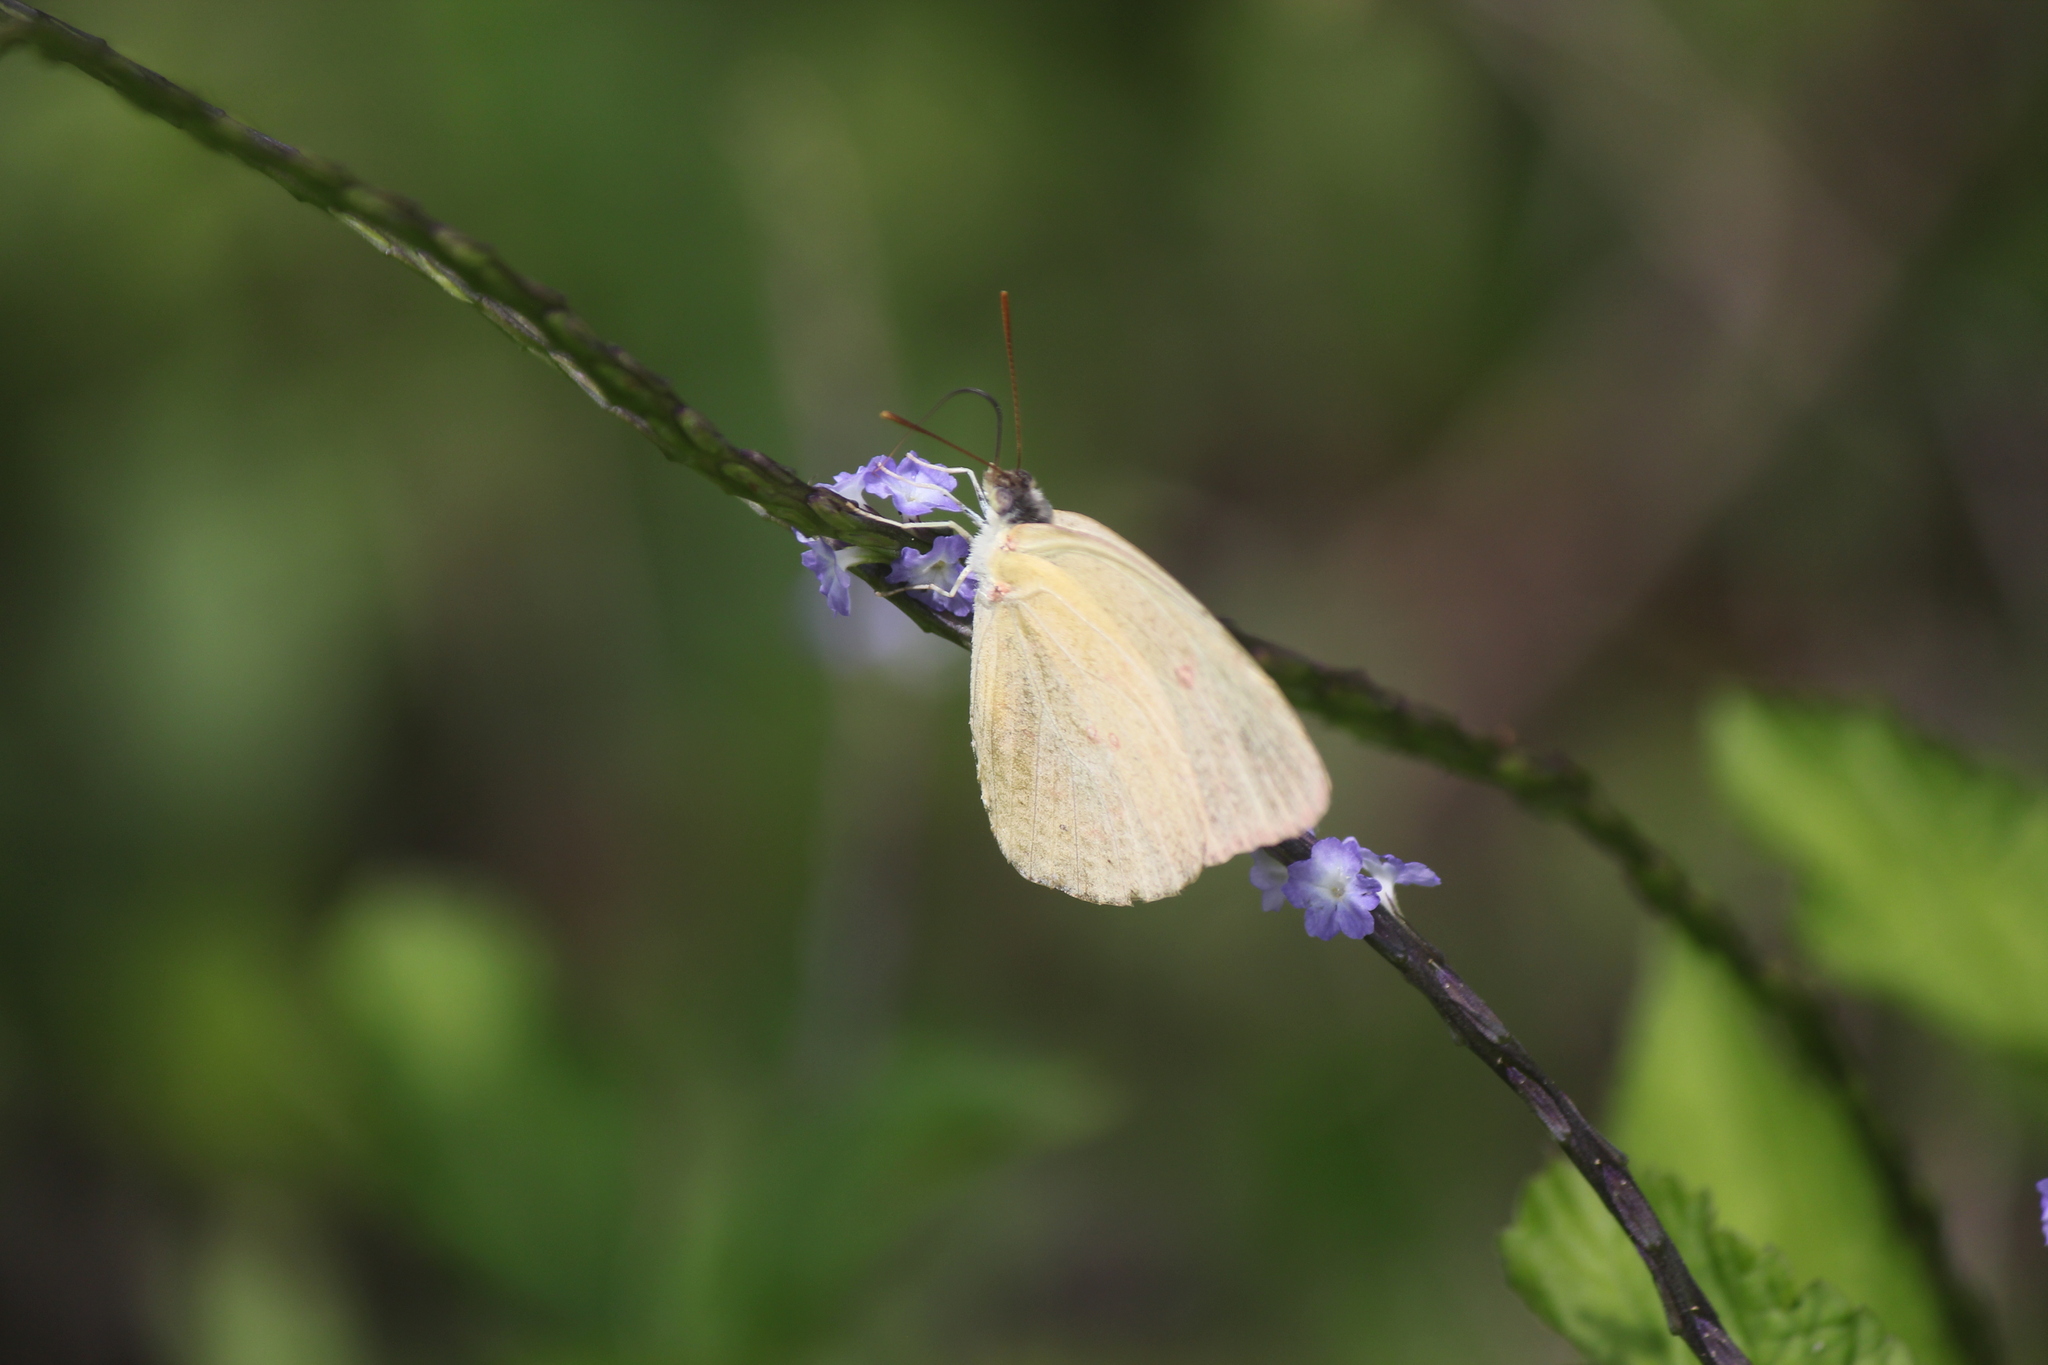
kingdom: Animalia
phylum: Arthropoda
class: Insecta
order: Lepidoptera
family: Pieridae
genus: Phoebis
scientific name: Phoebis sennae
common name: Cloudless sulphur
